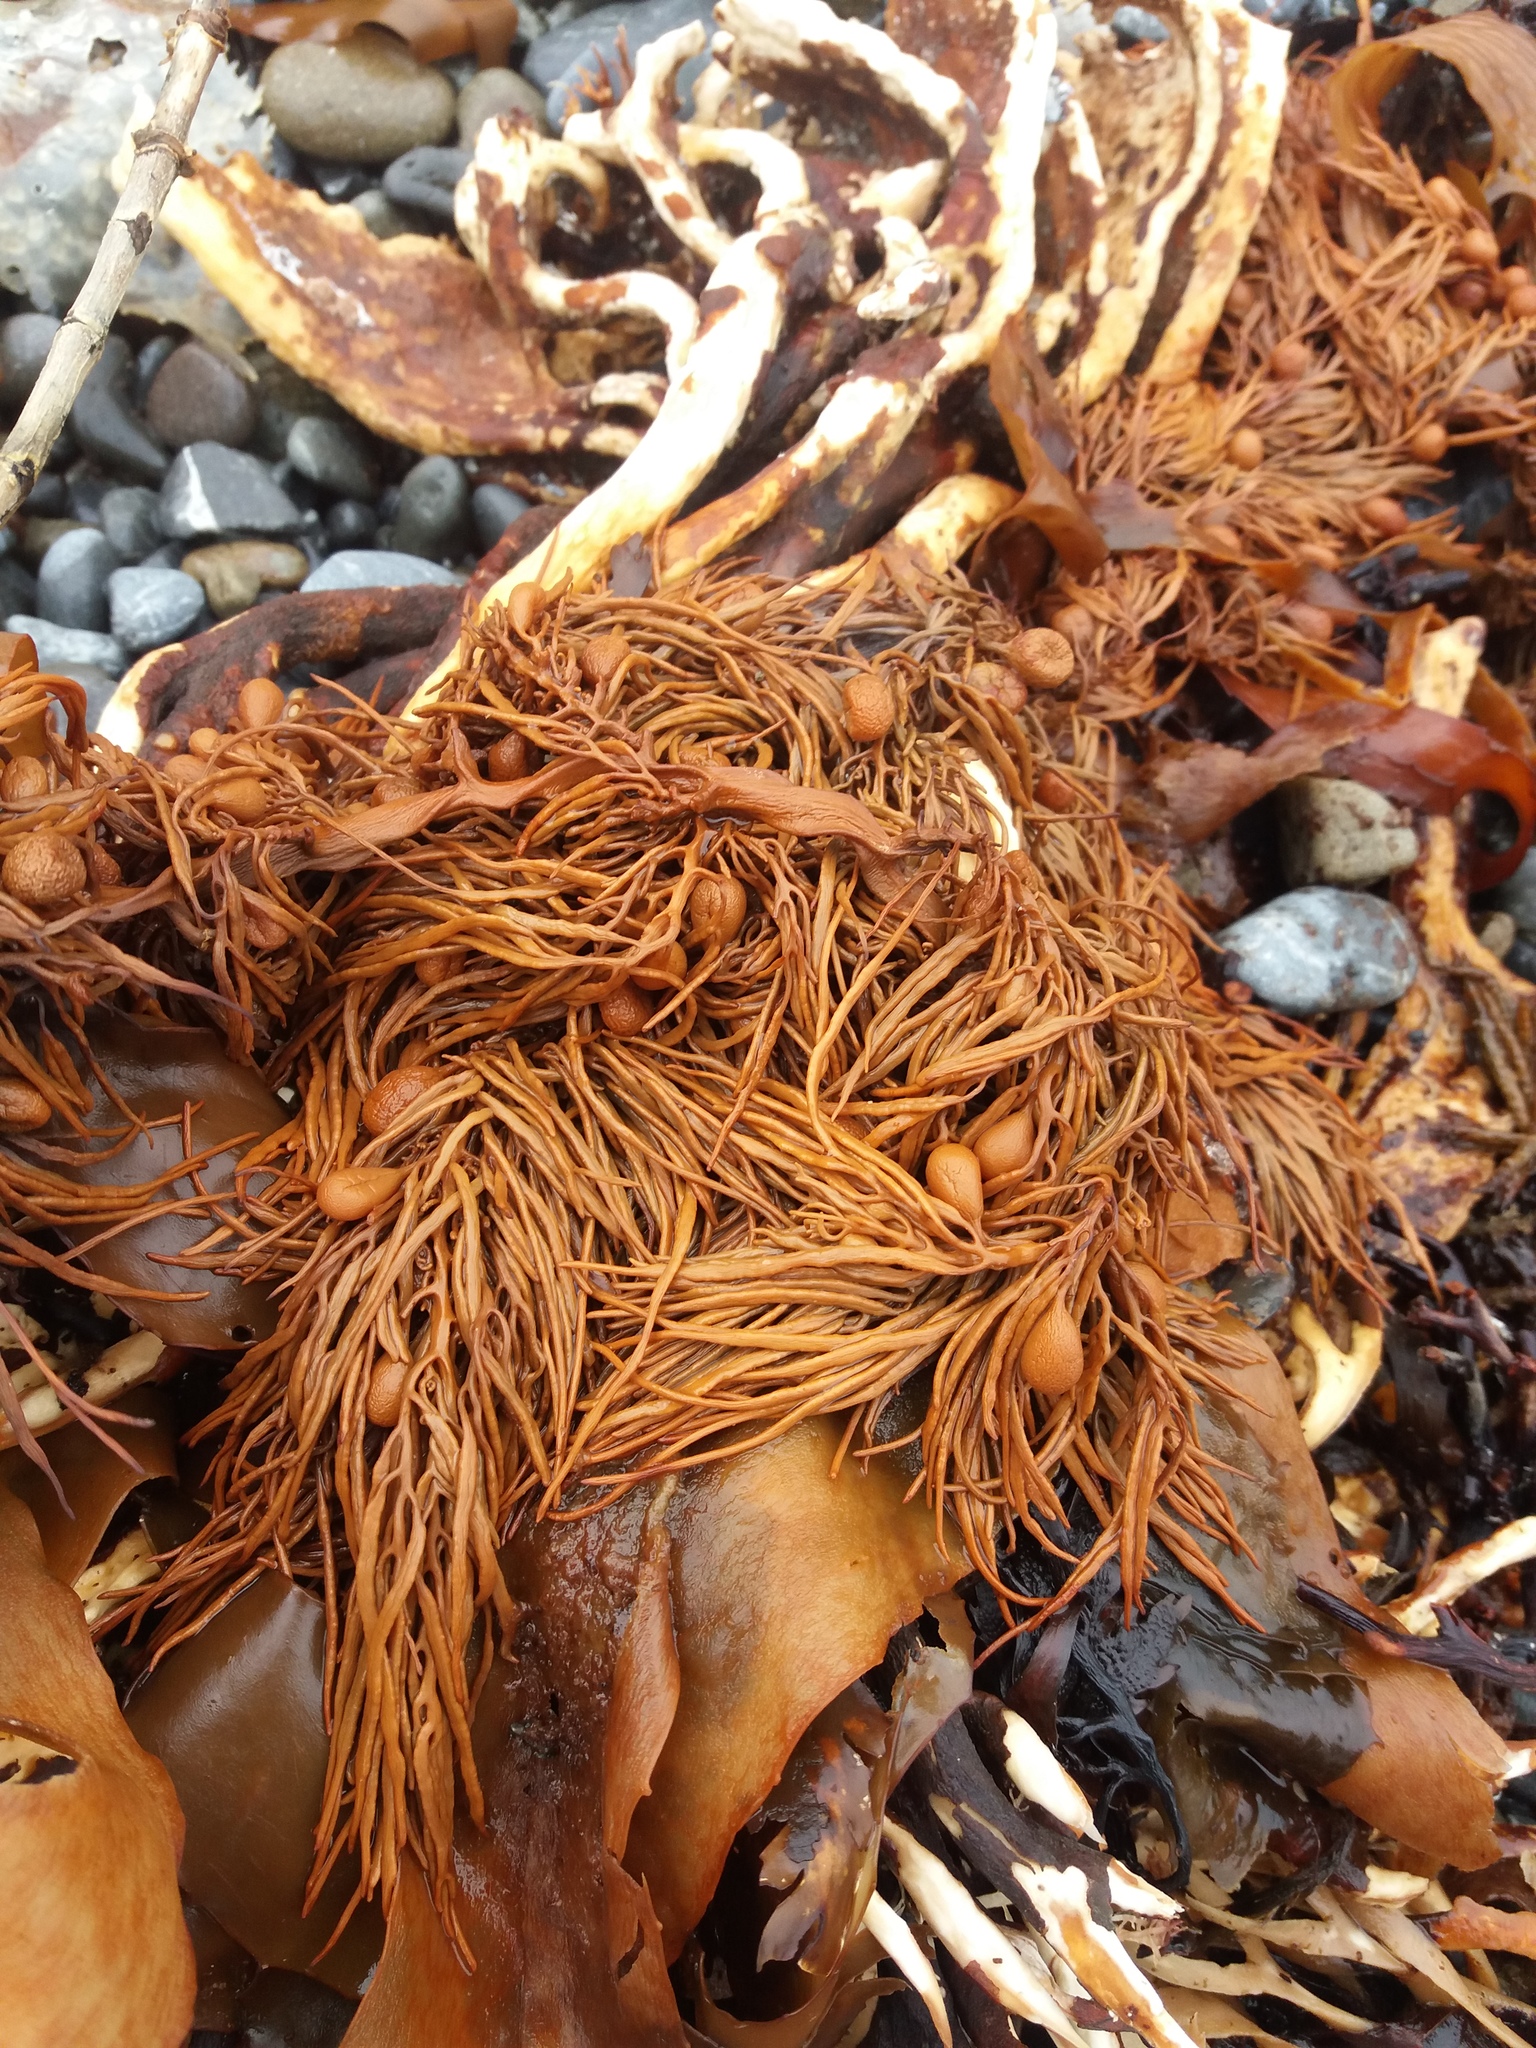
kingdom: Chromista
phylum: Ochrophyta
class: Phaeophyceae
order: Fucales
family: Sargassaceae
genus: Cystophora
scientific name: Cystophora retroflexa
